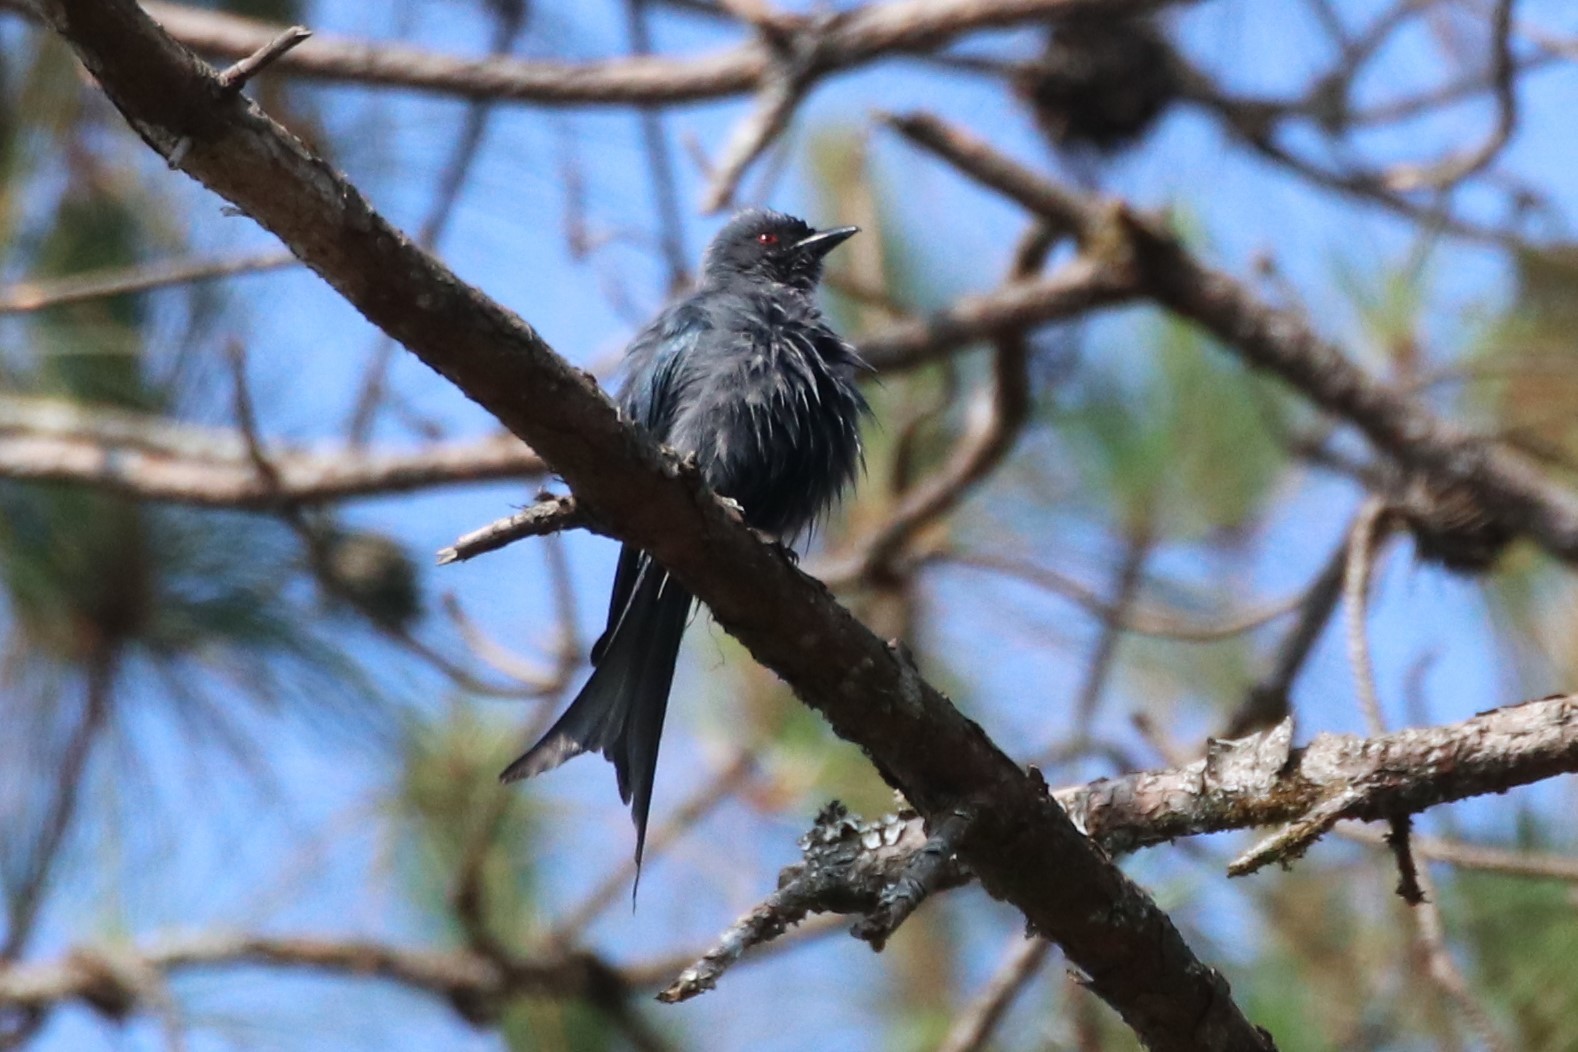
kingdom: Animalia
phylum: Chordata
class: Aves
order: Passeriformes
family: Dicruridae
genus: Dicrurus
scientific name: Dicrurus leucophaeus
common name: Ashy drongo
